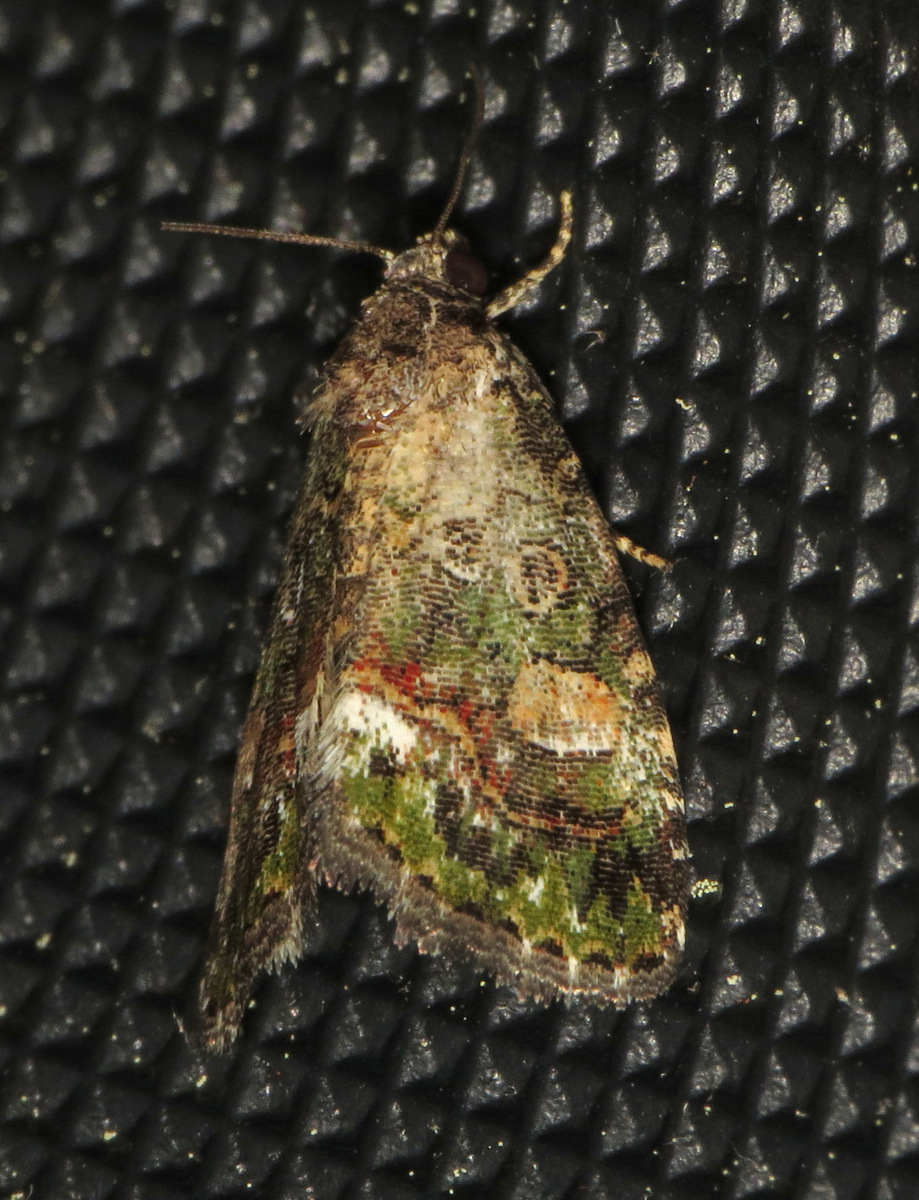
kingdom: Animalia
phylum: Arthropoda
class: Insecta
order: Lepidoptera
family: Noctuidae
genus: Lithacodia
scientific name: Lithacodia musta
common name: Small mossy glyph
